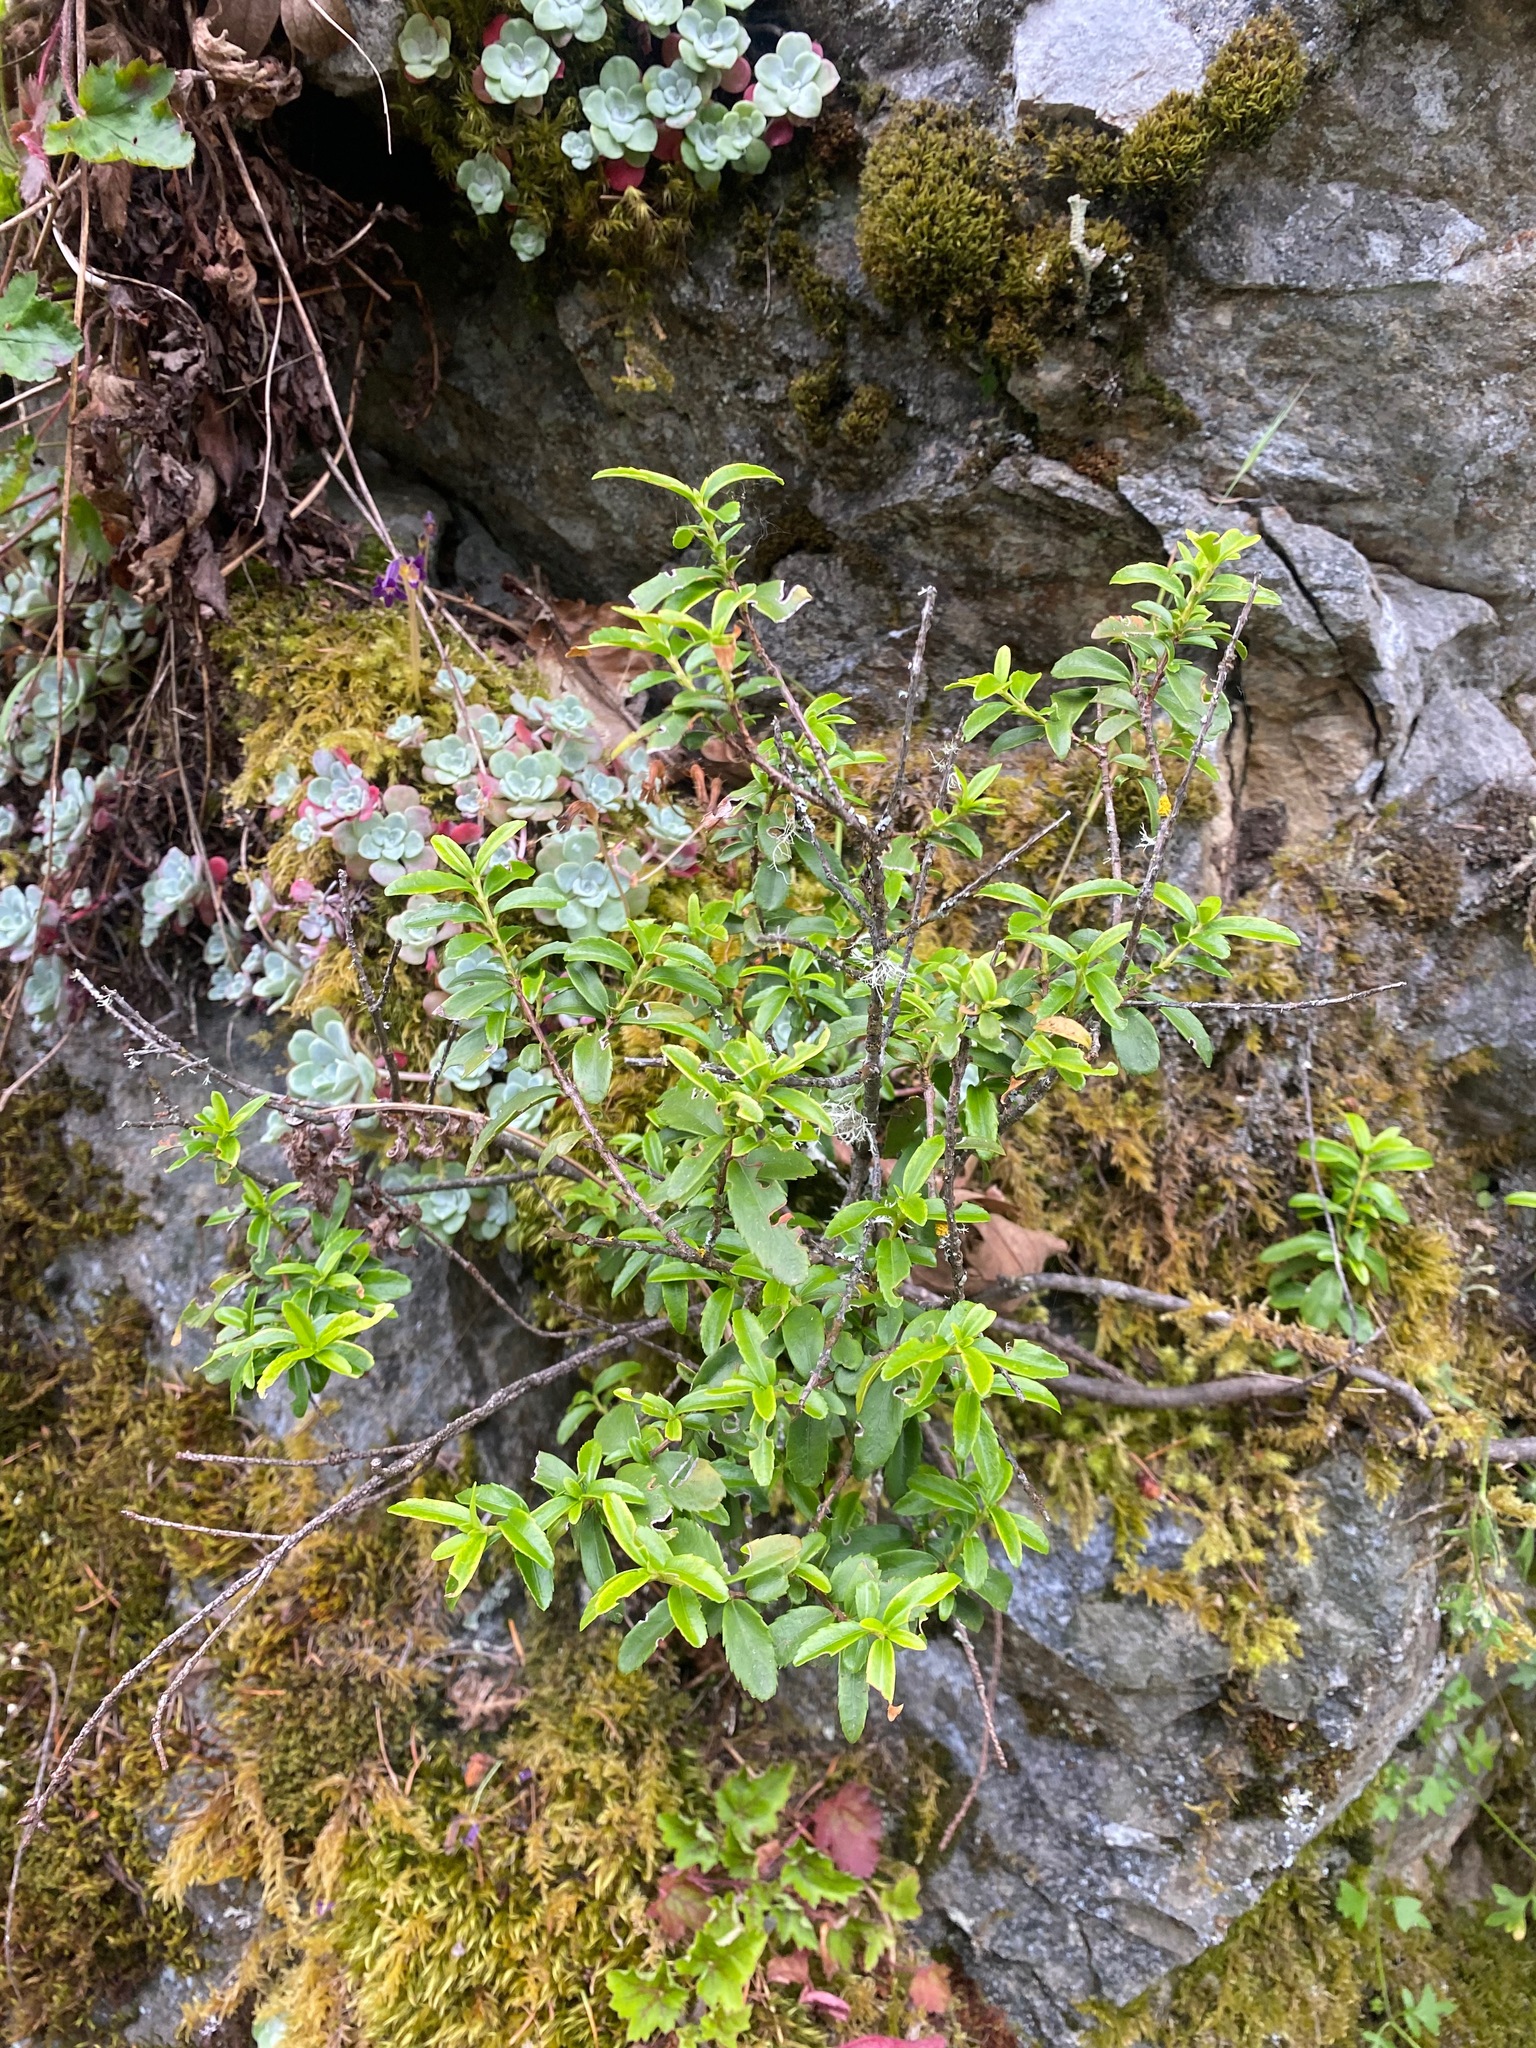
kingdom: Plantae
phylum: Tracheophyta
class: Magnoliopsida
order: Celastrales
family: Celastraceae
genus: Paxistima
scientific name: Paxistima myrsinites
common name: Mountain-lover
